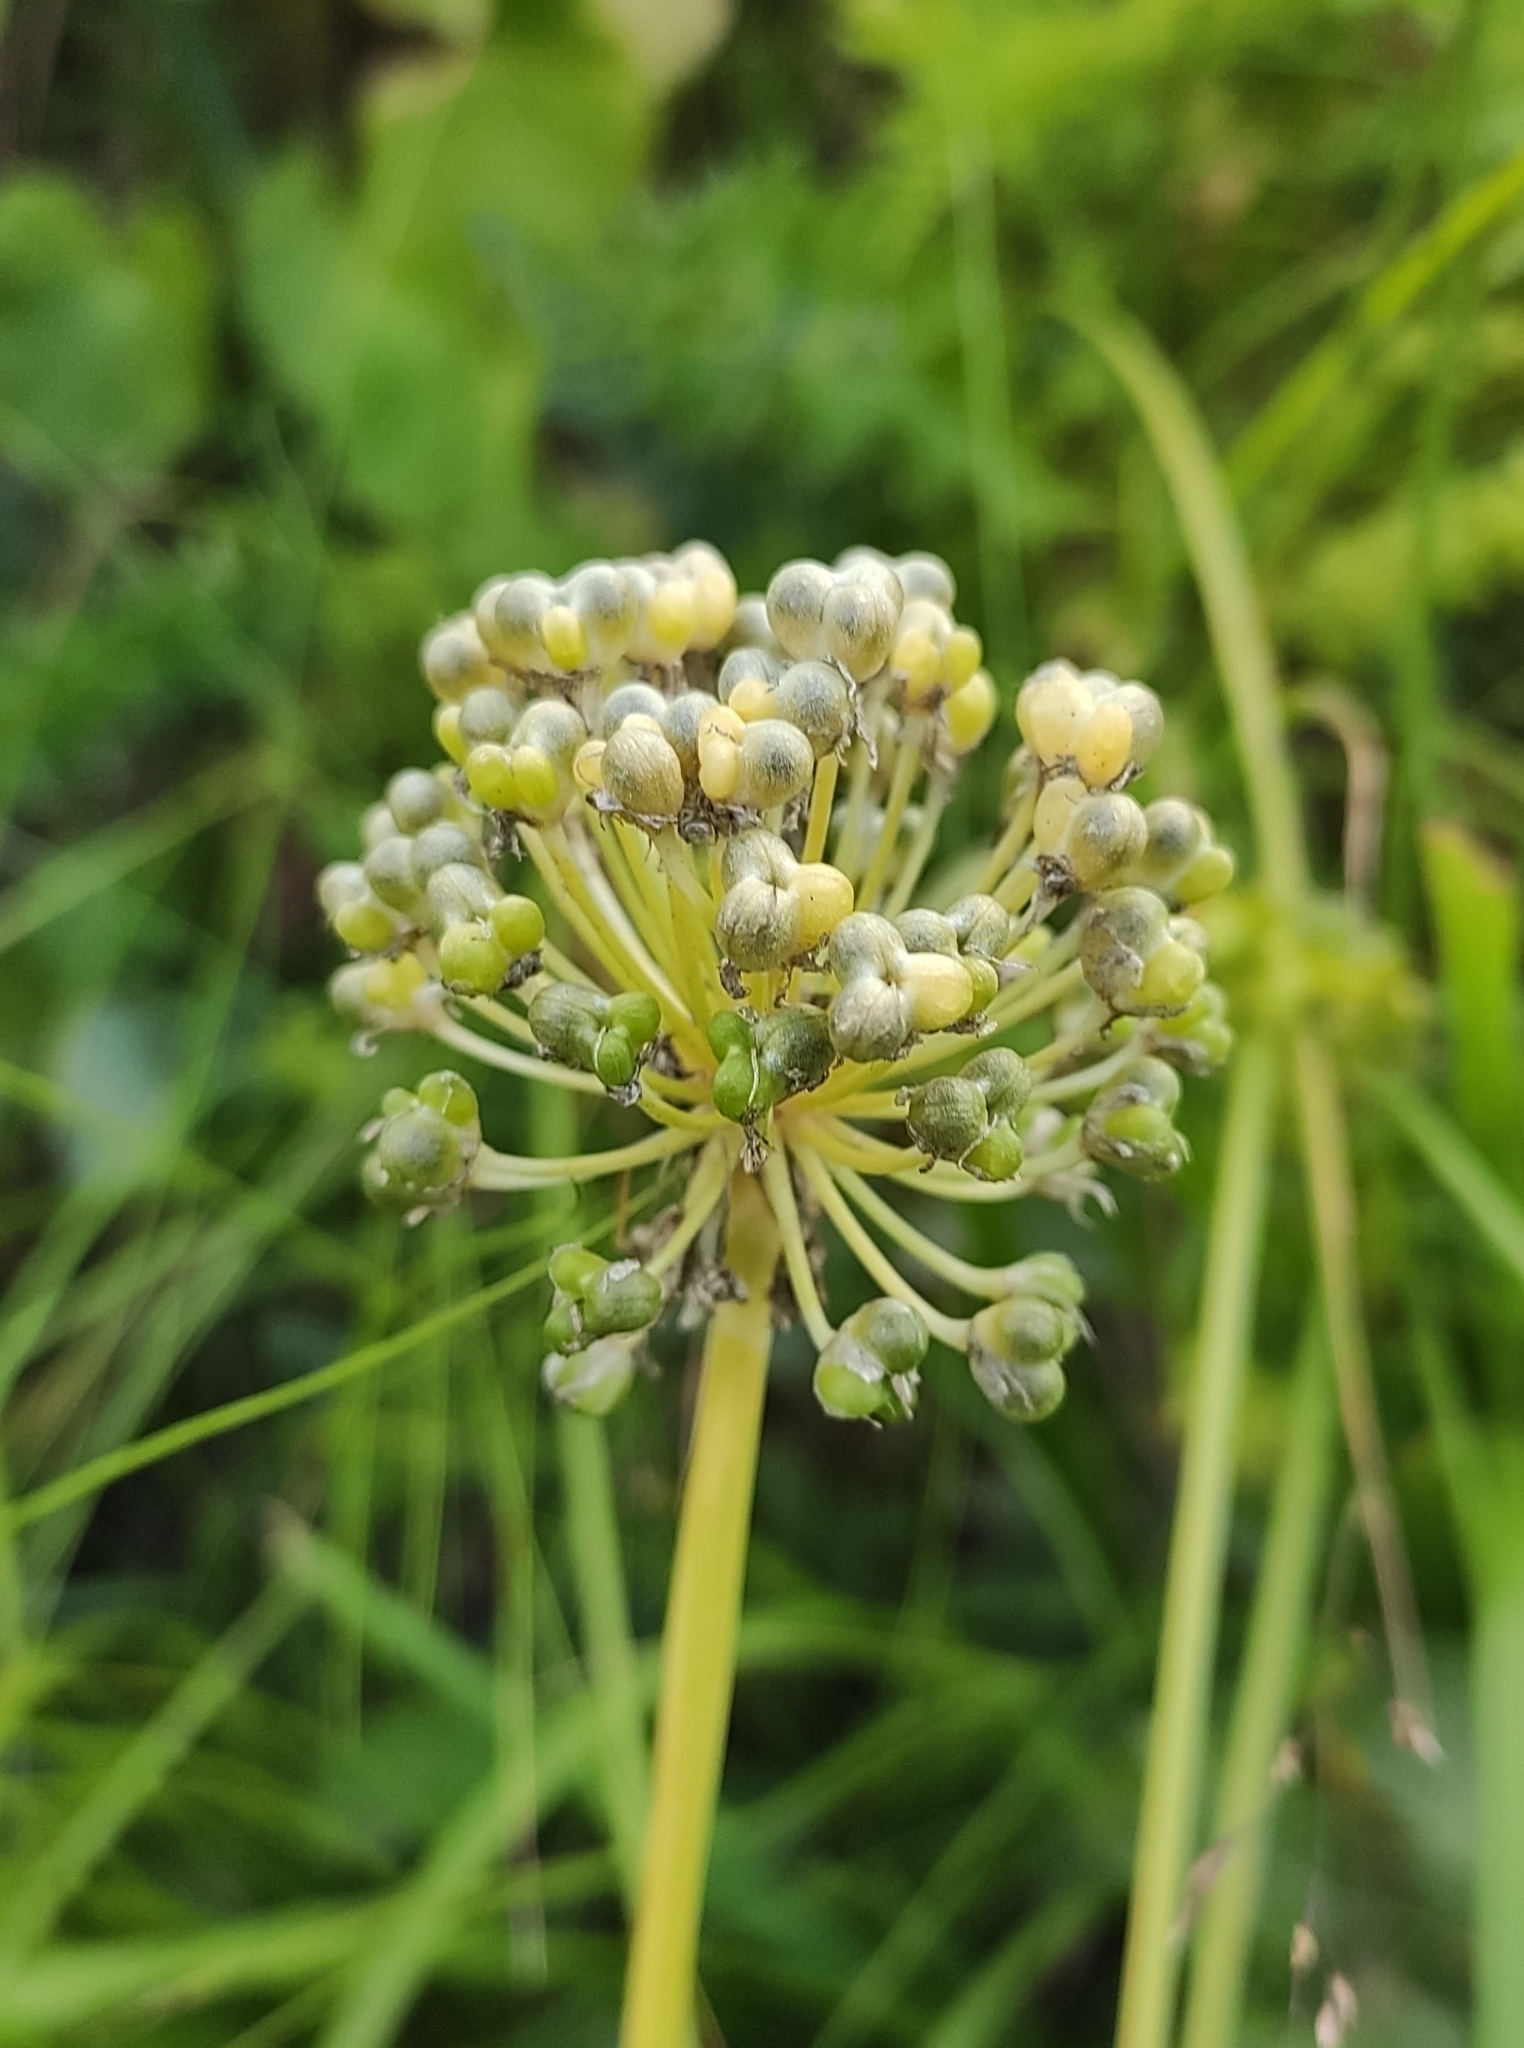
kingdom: Plantae
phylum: Tracheophyta
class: Liliopsida
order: Asparagales
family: Amaryllidaceae
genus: Allium
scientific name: Allium victorialis
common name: Alpine leek
